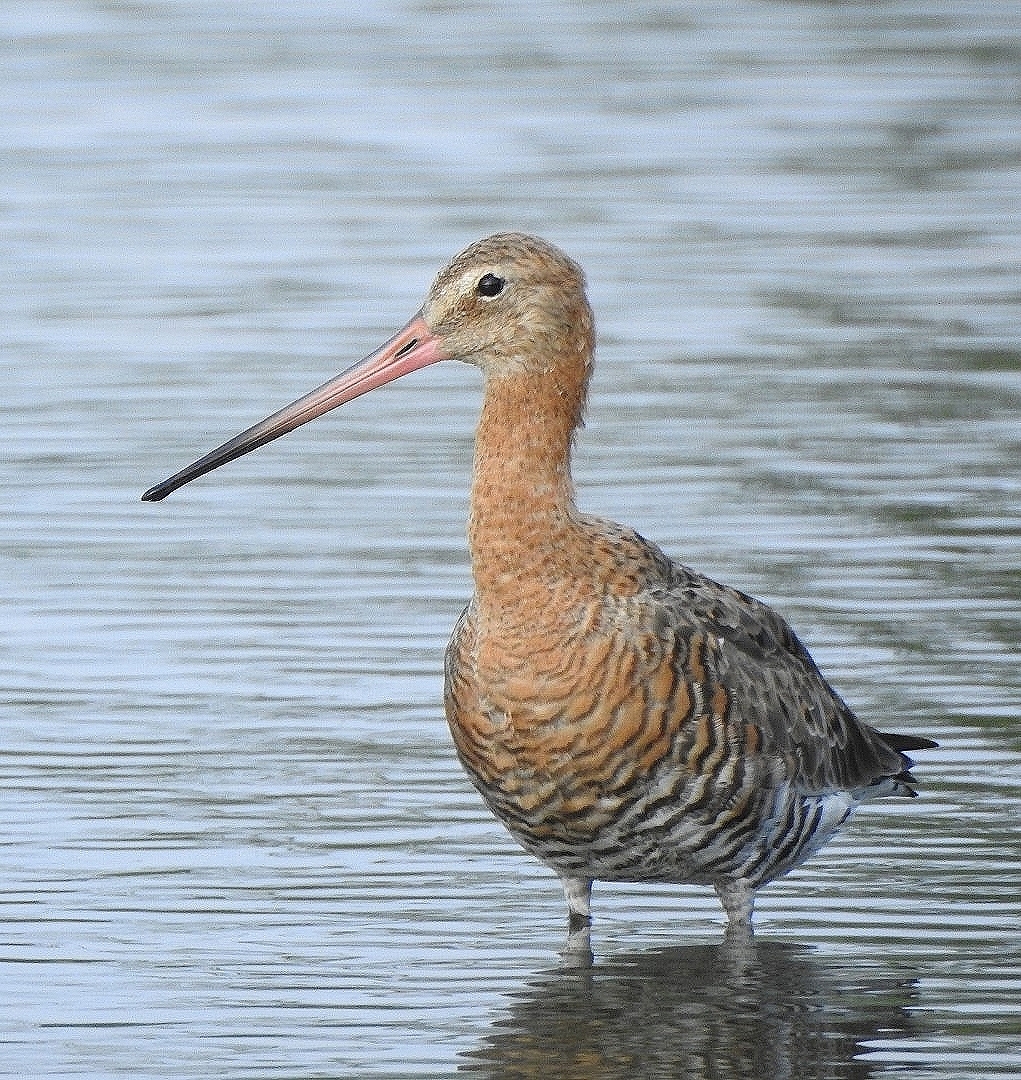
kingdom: Animalia
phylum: Chordata
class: Aves
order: Charadriiformes
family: Scolopacidae
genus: Limosa
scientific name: Limosa limosa
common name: Black-tailed godwit
